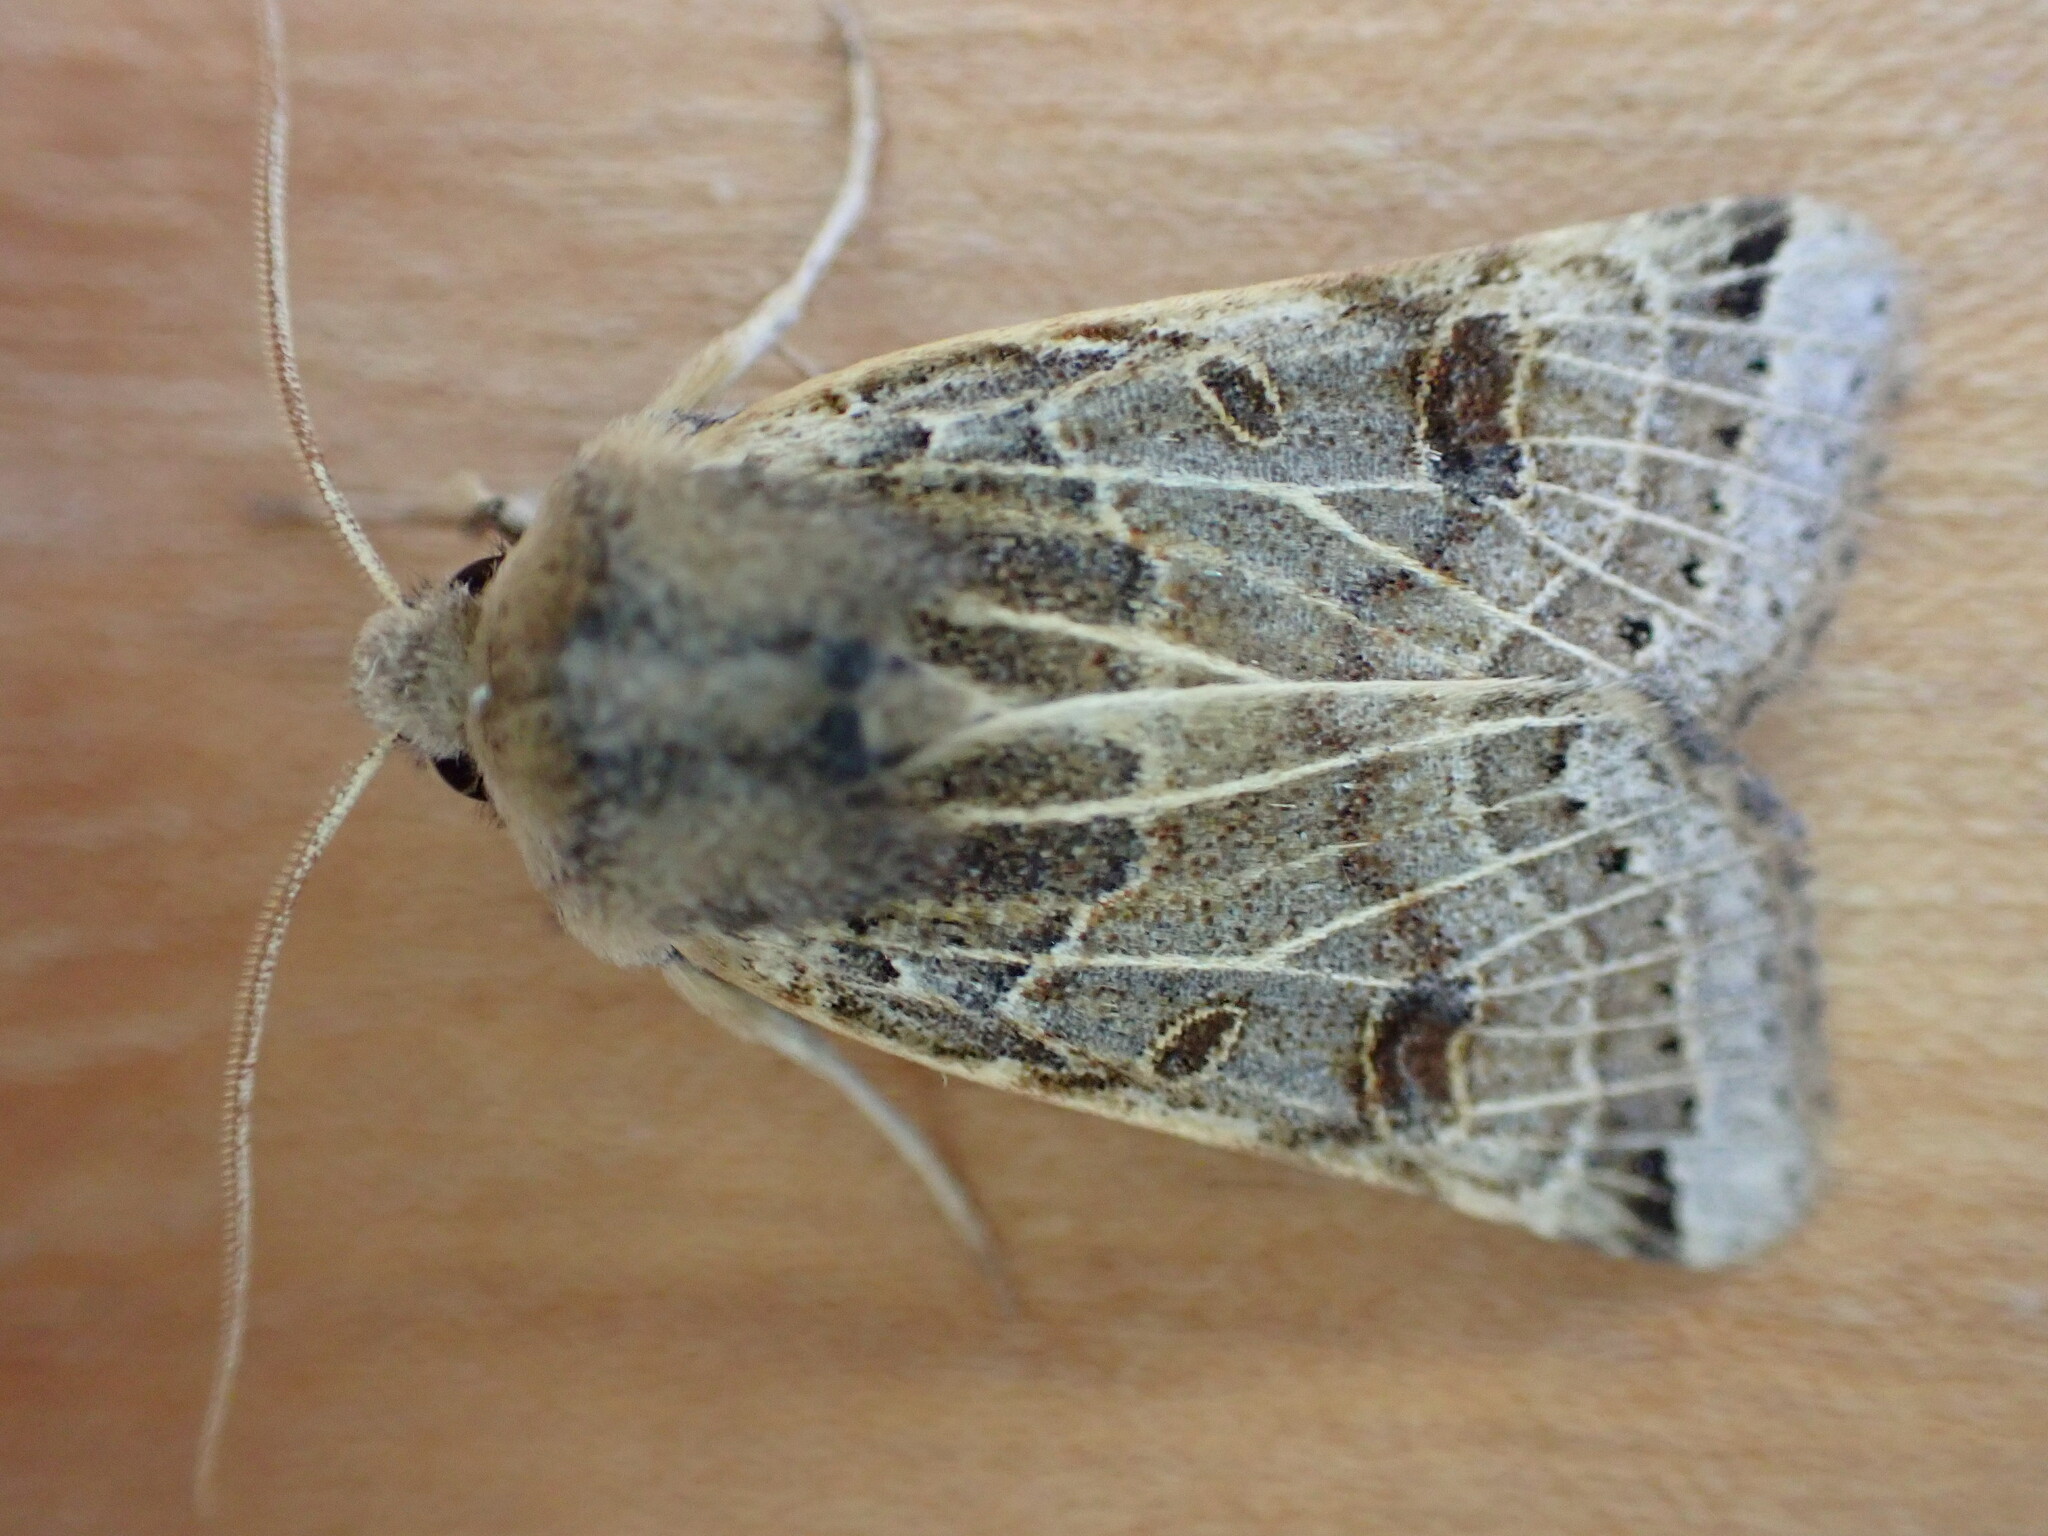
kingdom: Animalia
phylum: Arthropoda
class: Insecta
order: Lepidoptera
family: Noctuidae
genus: Agrochola
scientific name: Agrochola lunosa
